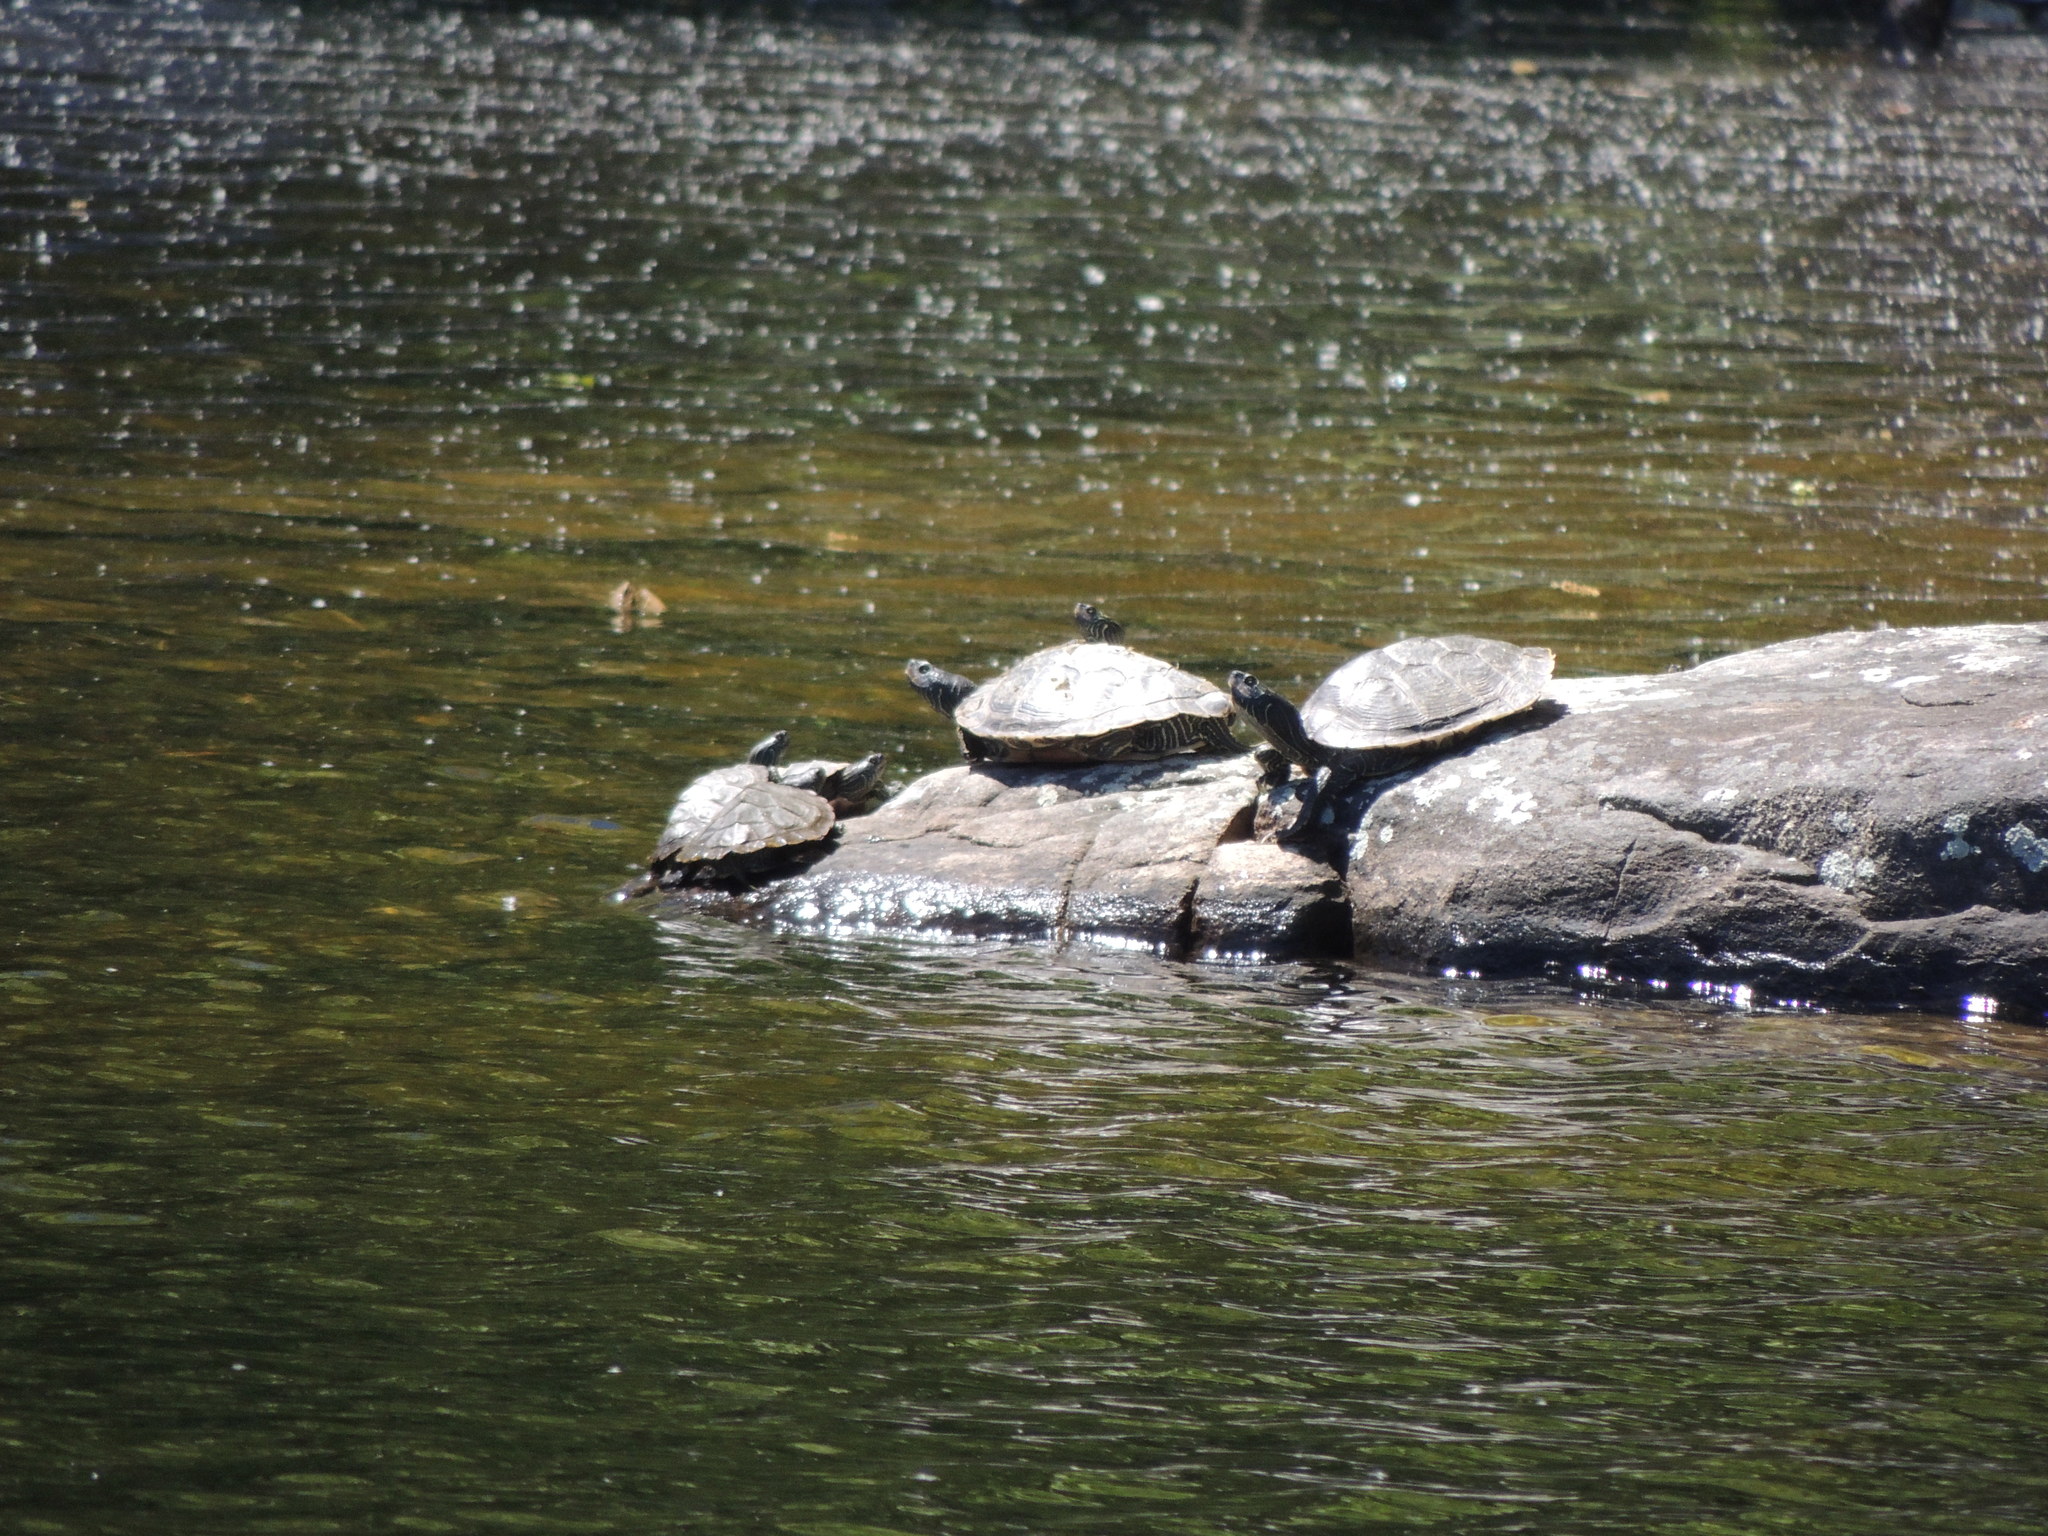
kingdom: Animalia
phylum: Chordata
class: Testudines
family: Emydidae
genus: Graptemys
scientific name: Graptemys geographica
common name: Common map turtle
